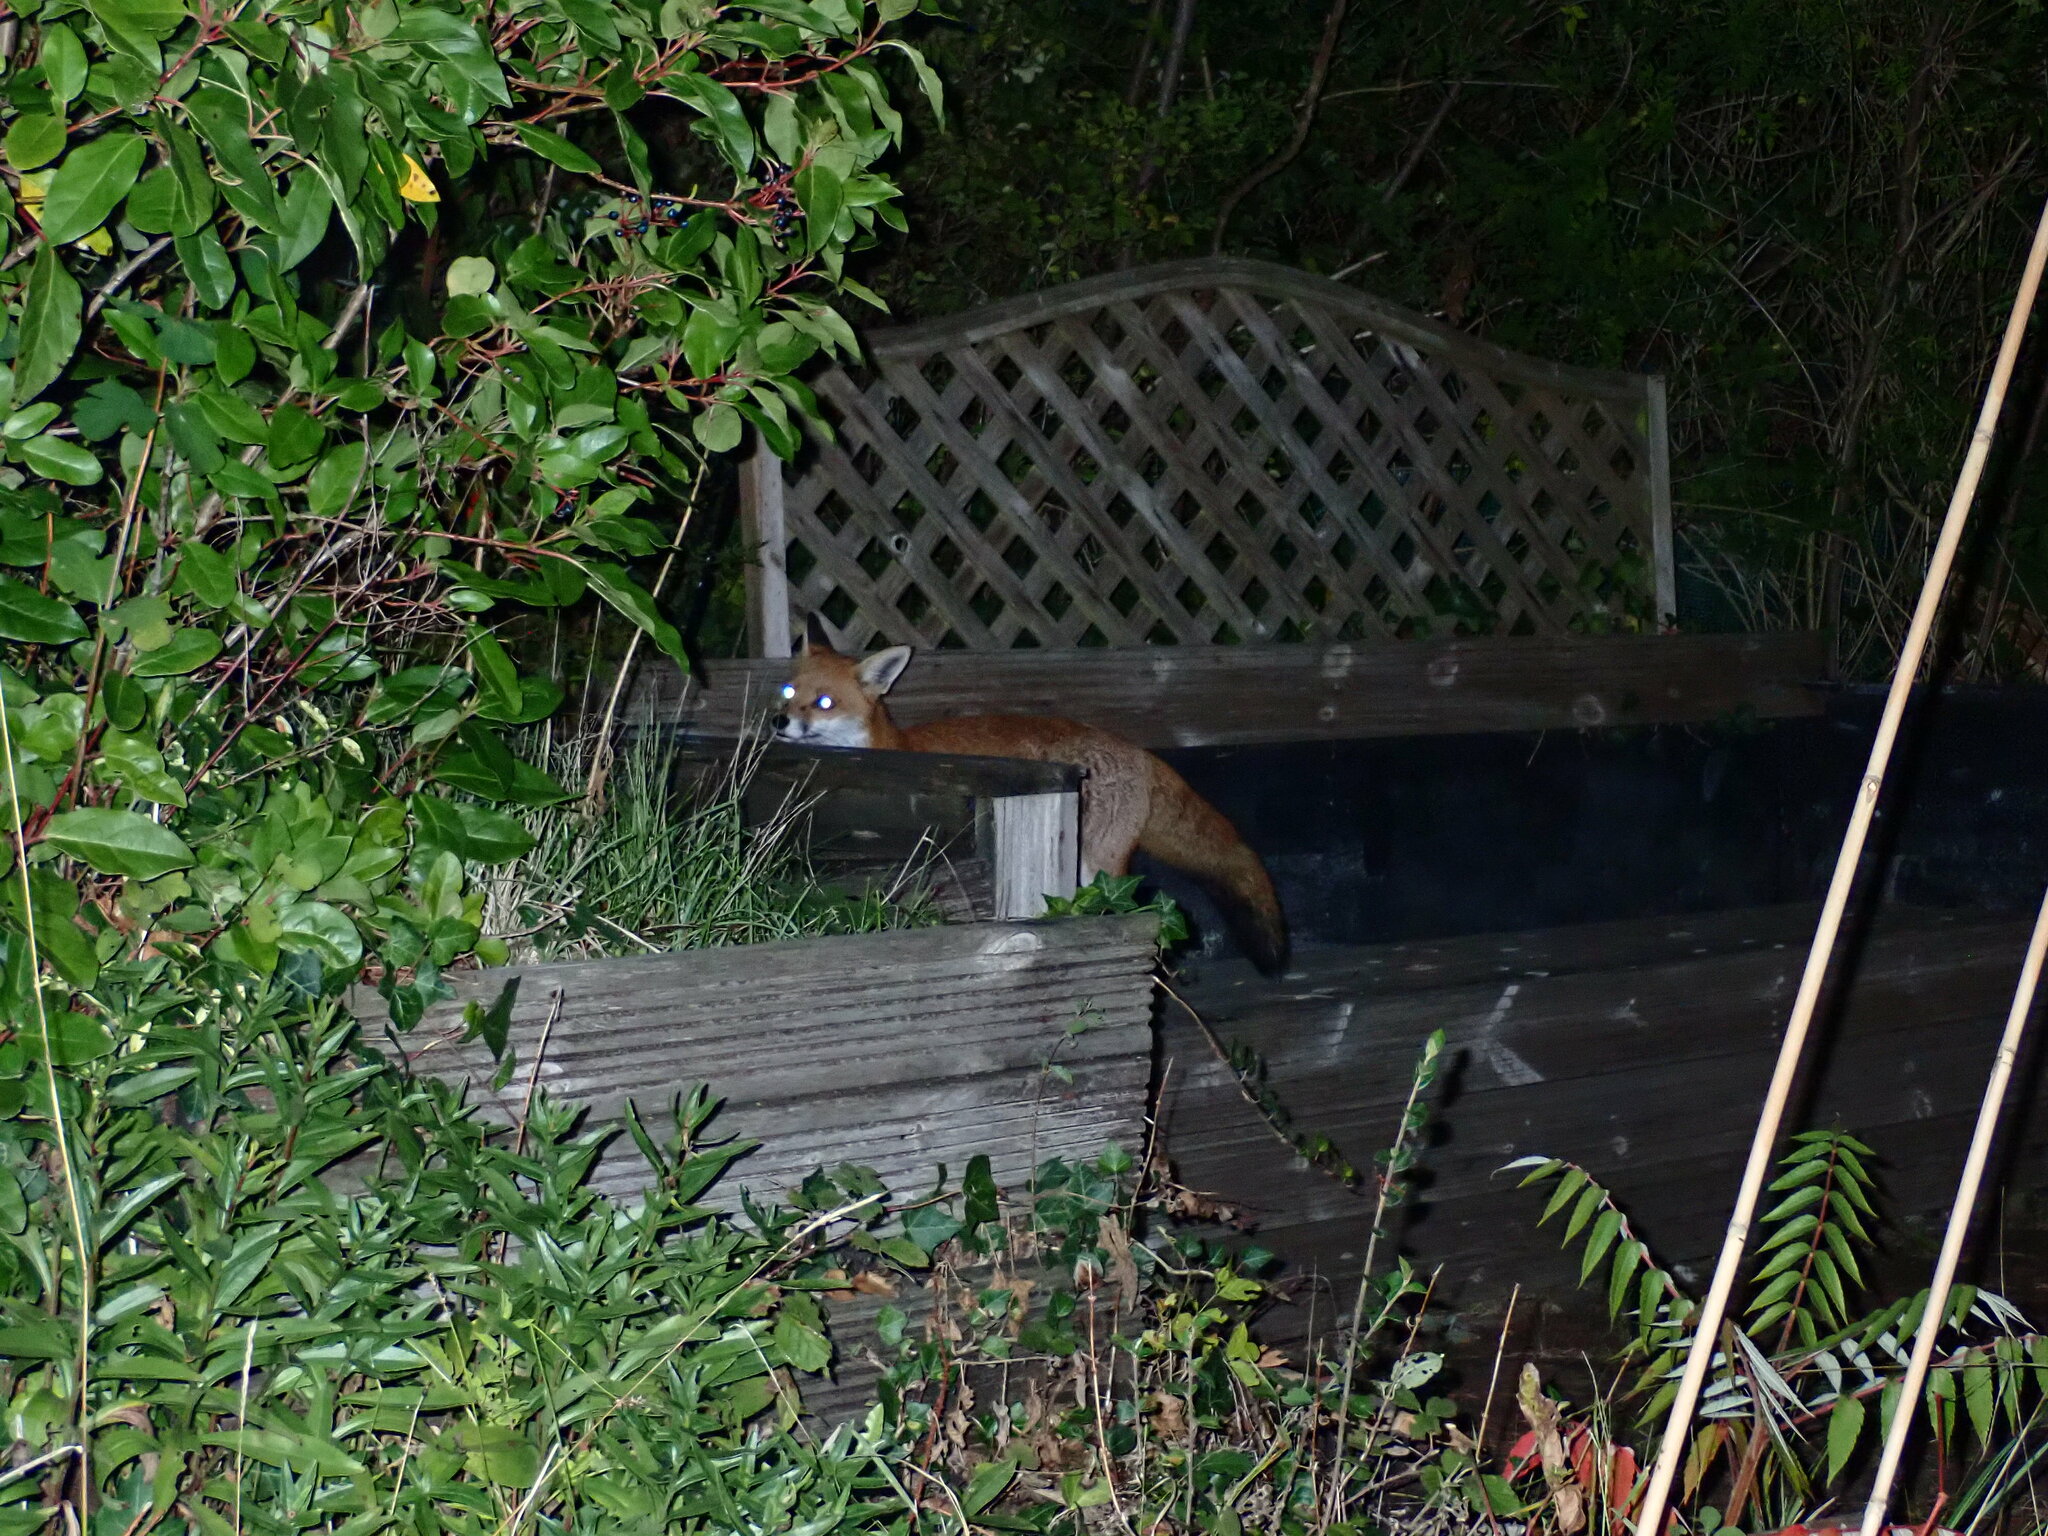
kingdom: Animalia
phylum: Chordata
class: Mammalia
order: Carnivora
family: Canidae
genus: Vulpes
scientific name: Vulpes vulpes
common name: Red fox
